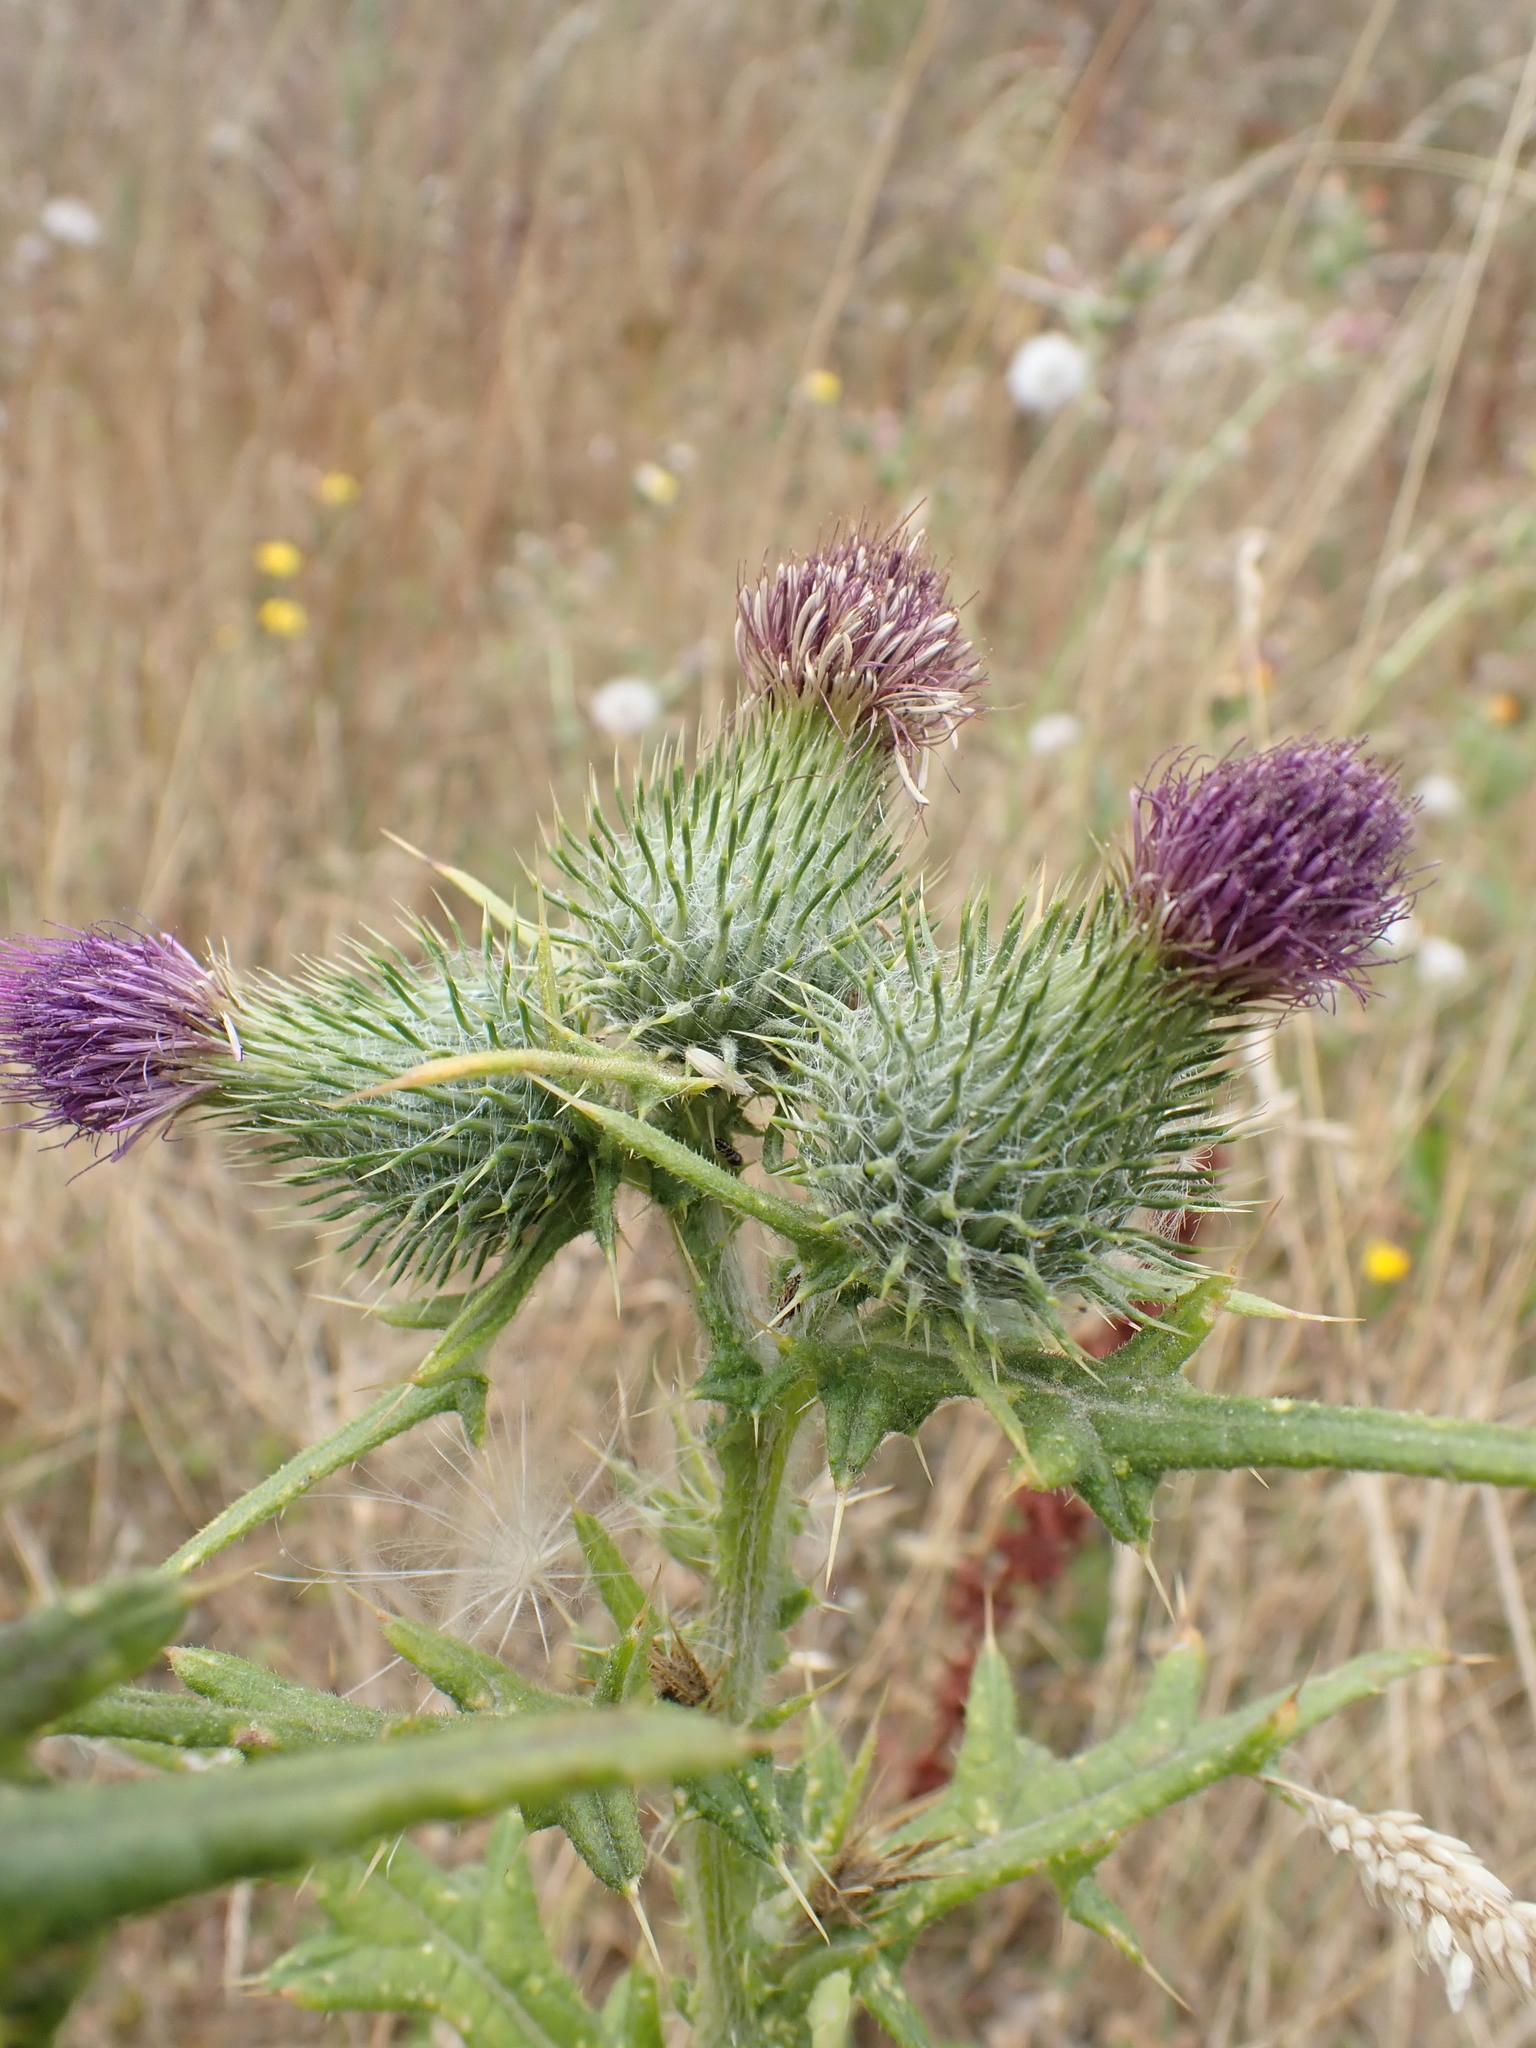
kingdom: Plantae
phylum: Tracheophyta
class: Magnoliopsida
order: Asterales
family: Asteraceae
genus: Cirsium
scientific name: Cirsium vulgare
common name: Bull thistle
